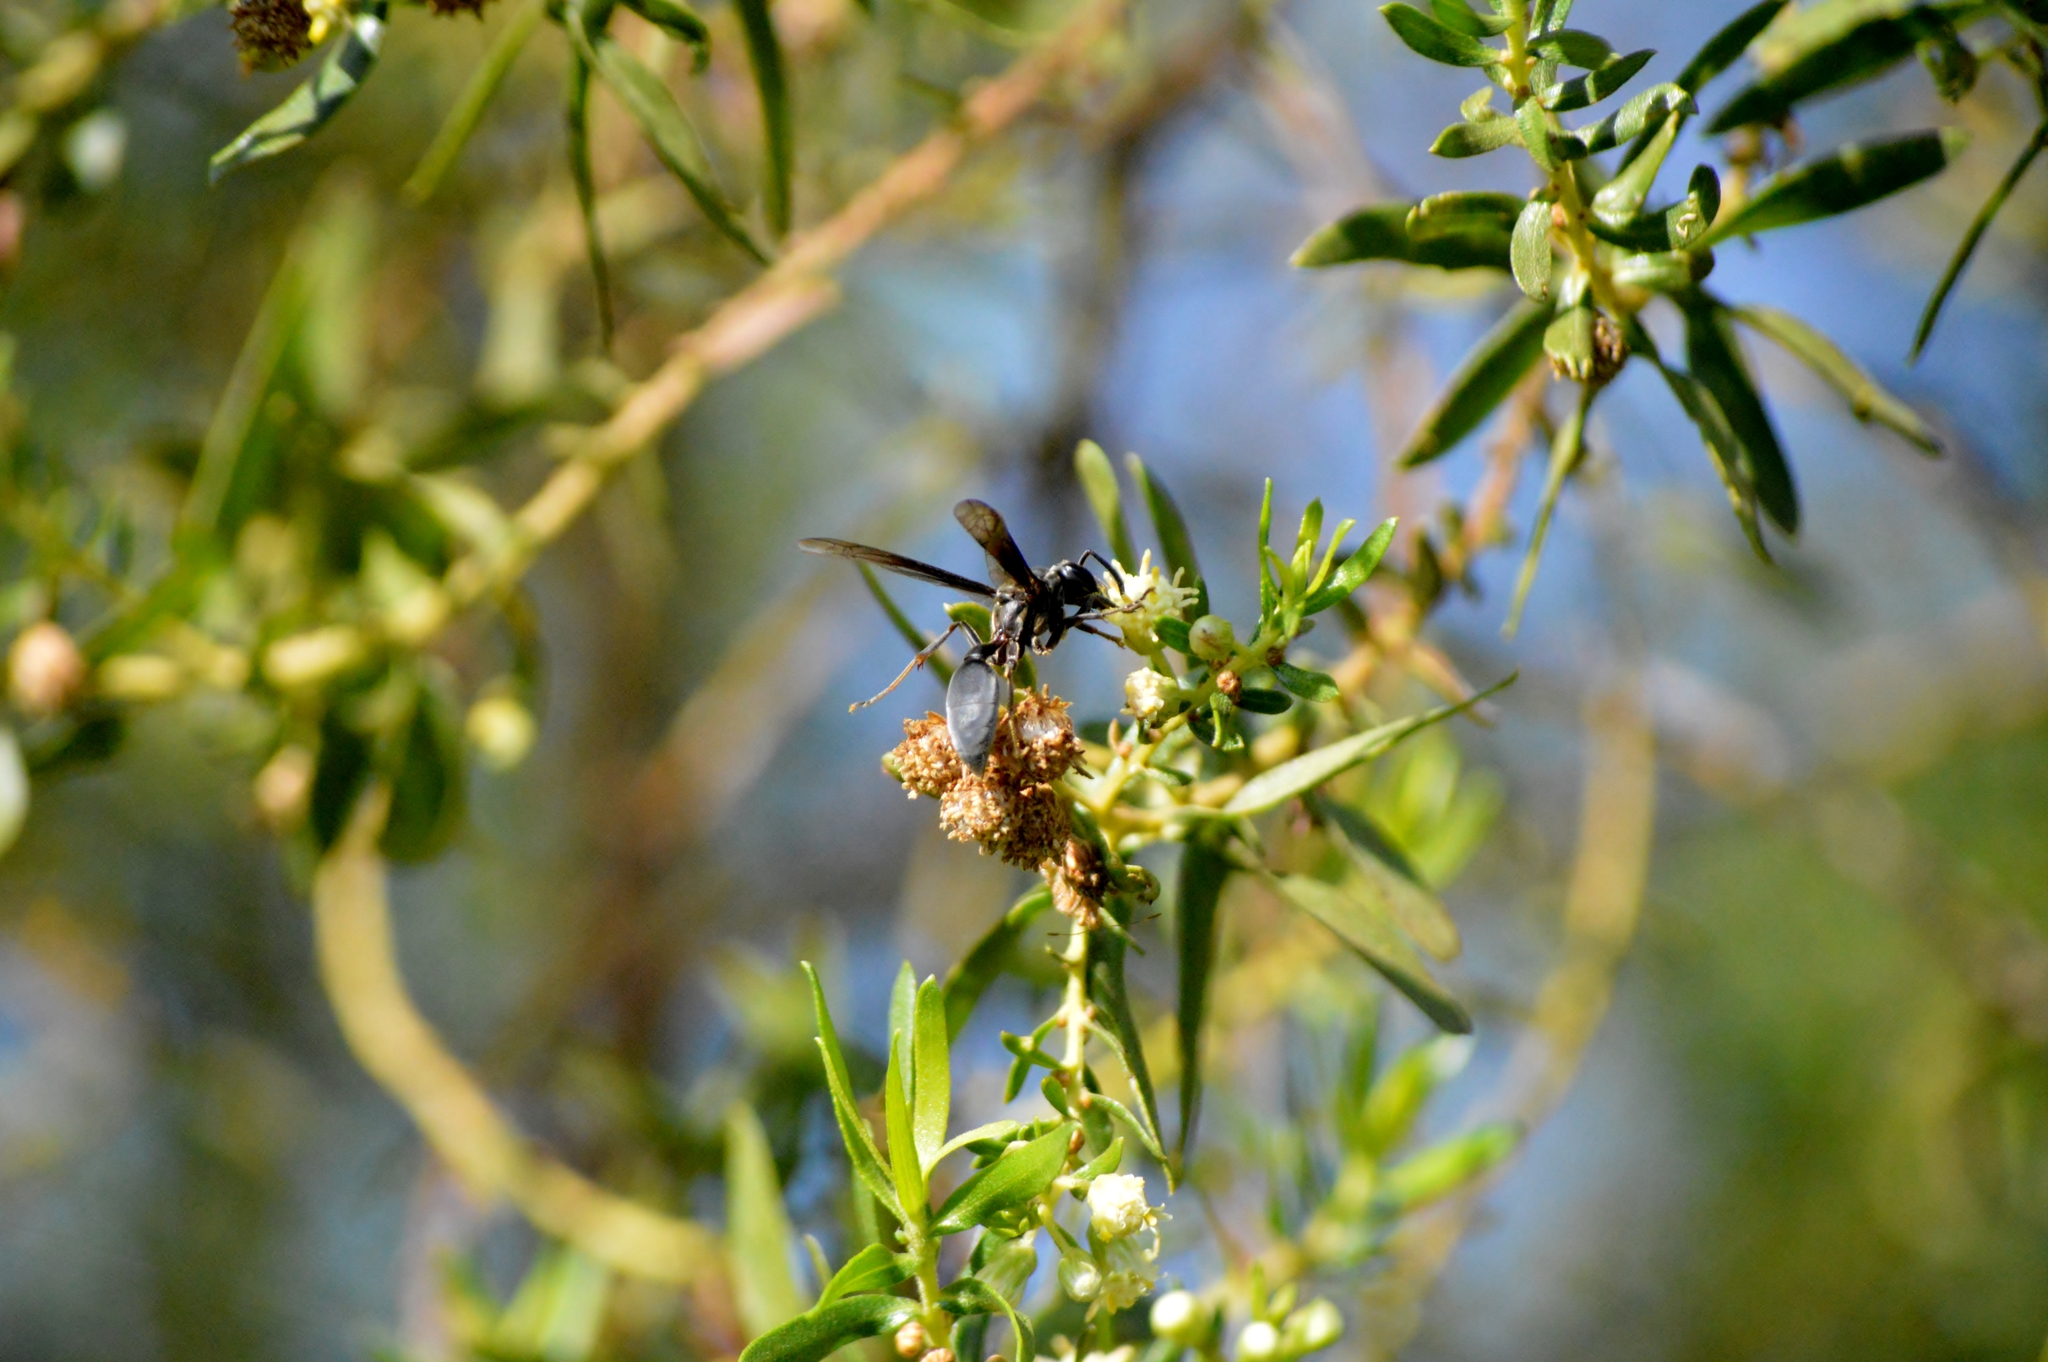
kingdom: Animalia
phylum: Arthropoda
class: Insecta
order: Hymenoptera
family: Eumenidae
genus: Polybia
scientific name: Polybia ignobilis
